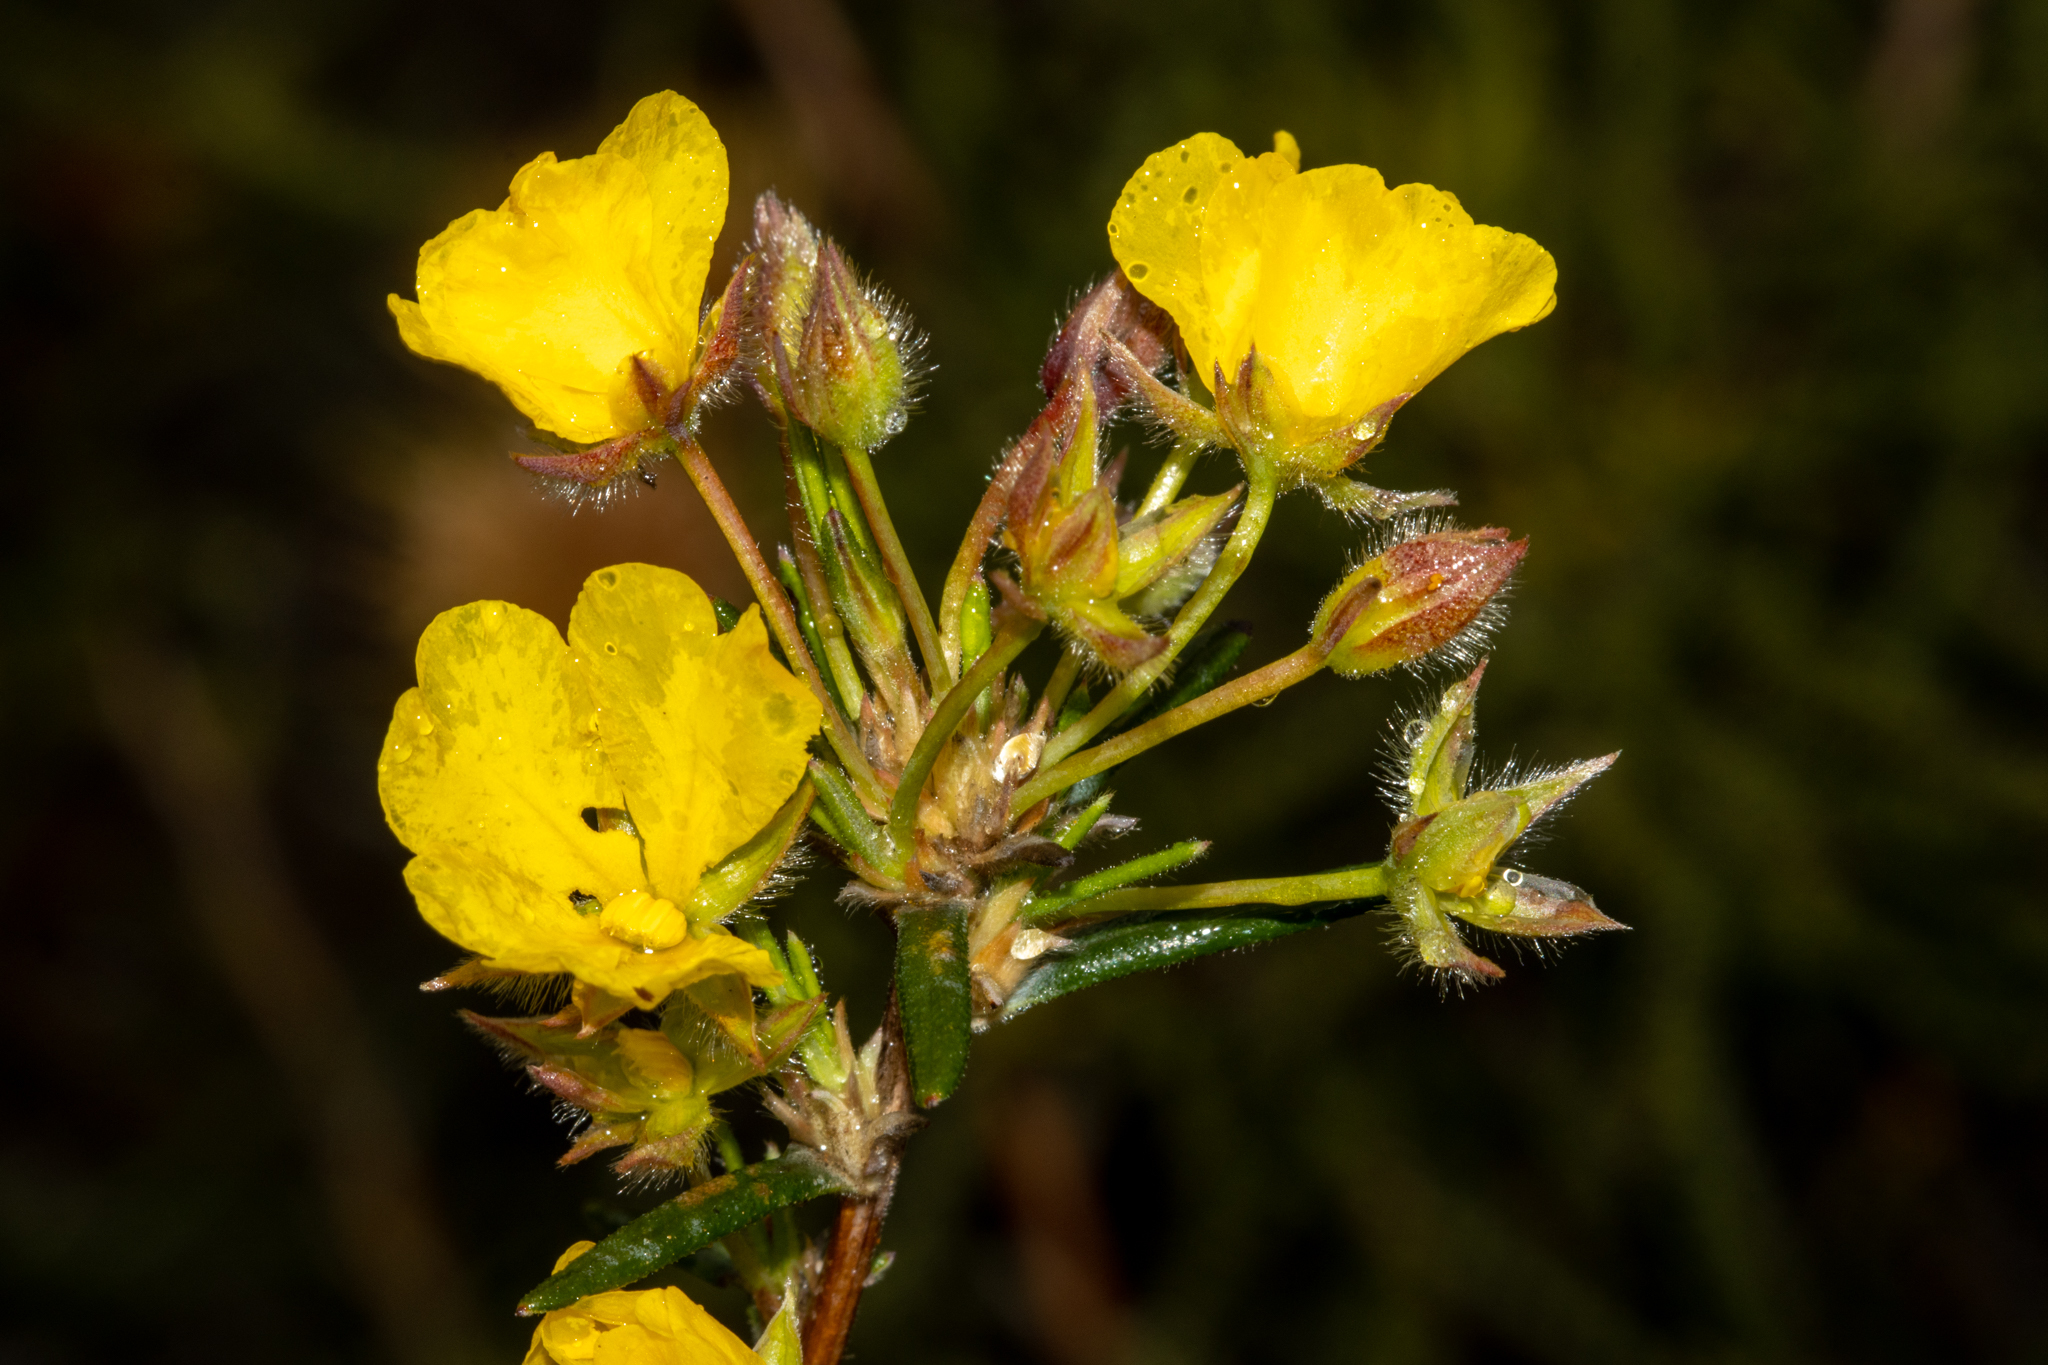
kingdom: Plantae
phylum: Tracheophyta
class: Magnoliopsida
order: Dilleniales
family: Dilleniaceae
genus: Hibbertia
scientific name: Hibbertia fasciculiflora
